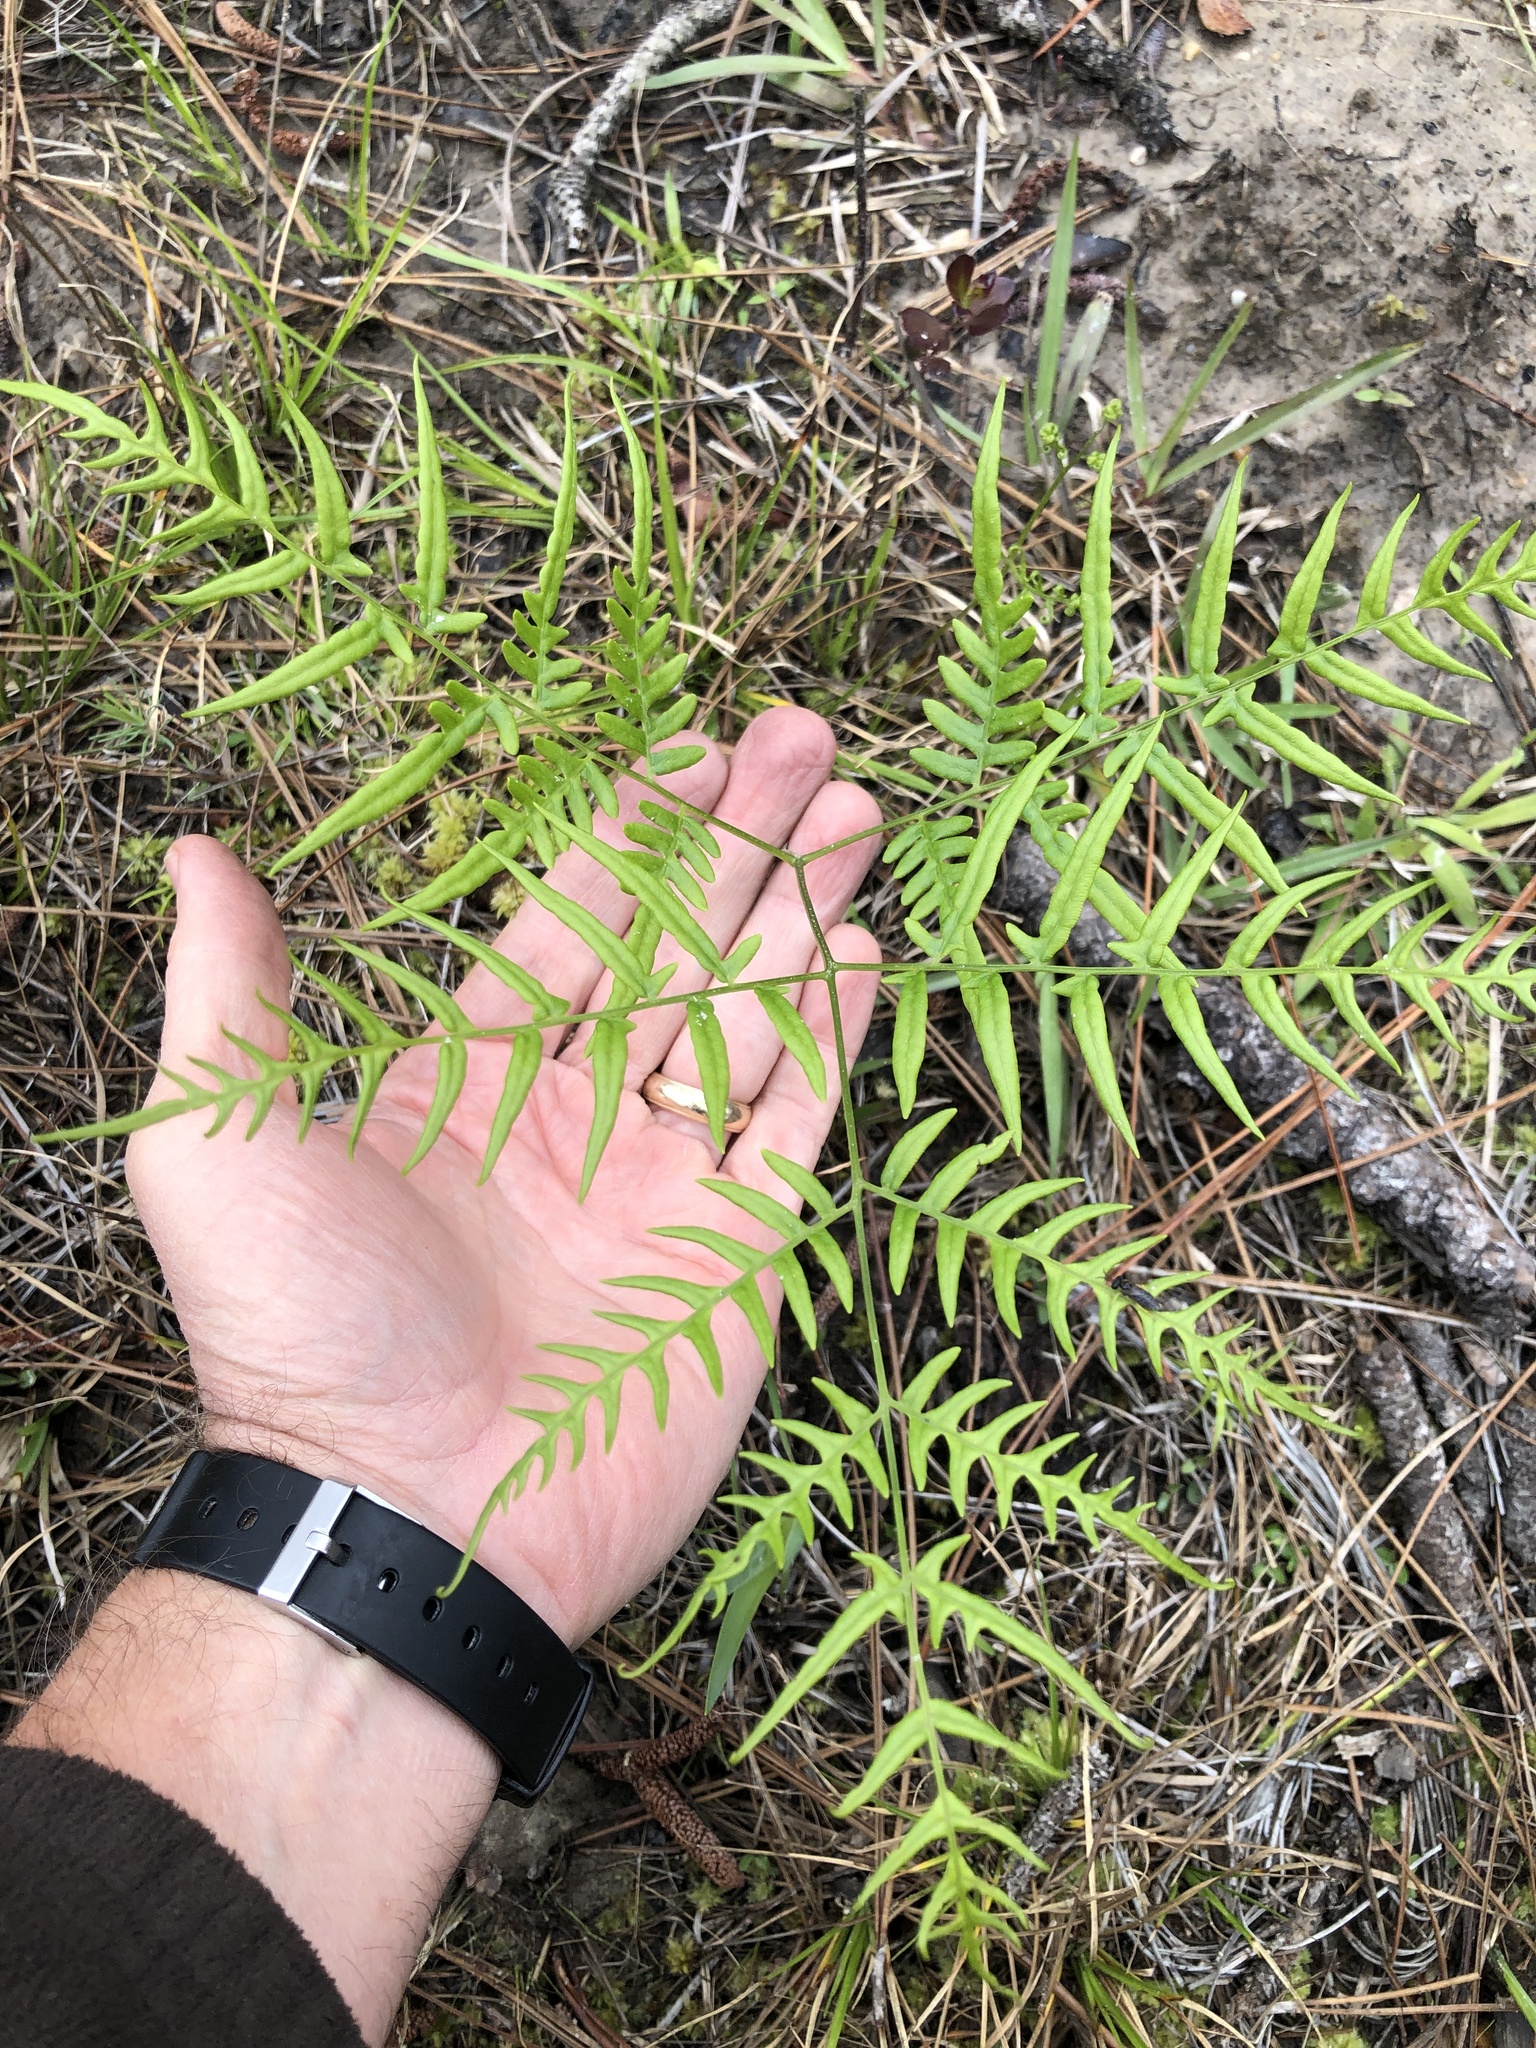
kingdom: Plantae
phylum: Tracheophyta
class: Polypodiopsida
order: Polypodiales
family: Dennstaedtiaceae
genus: Pteridium
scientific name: Pteridium aquilinum
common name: Bracken
